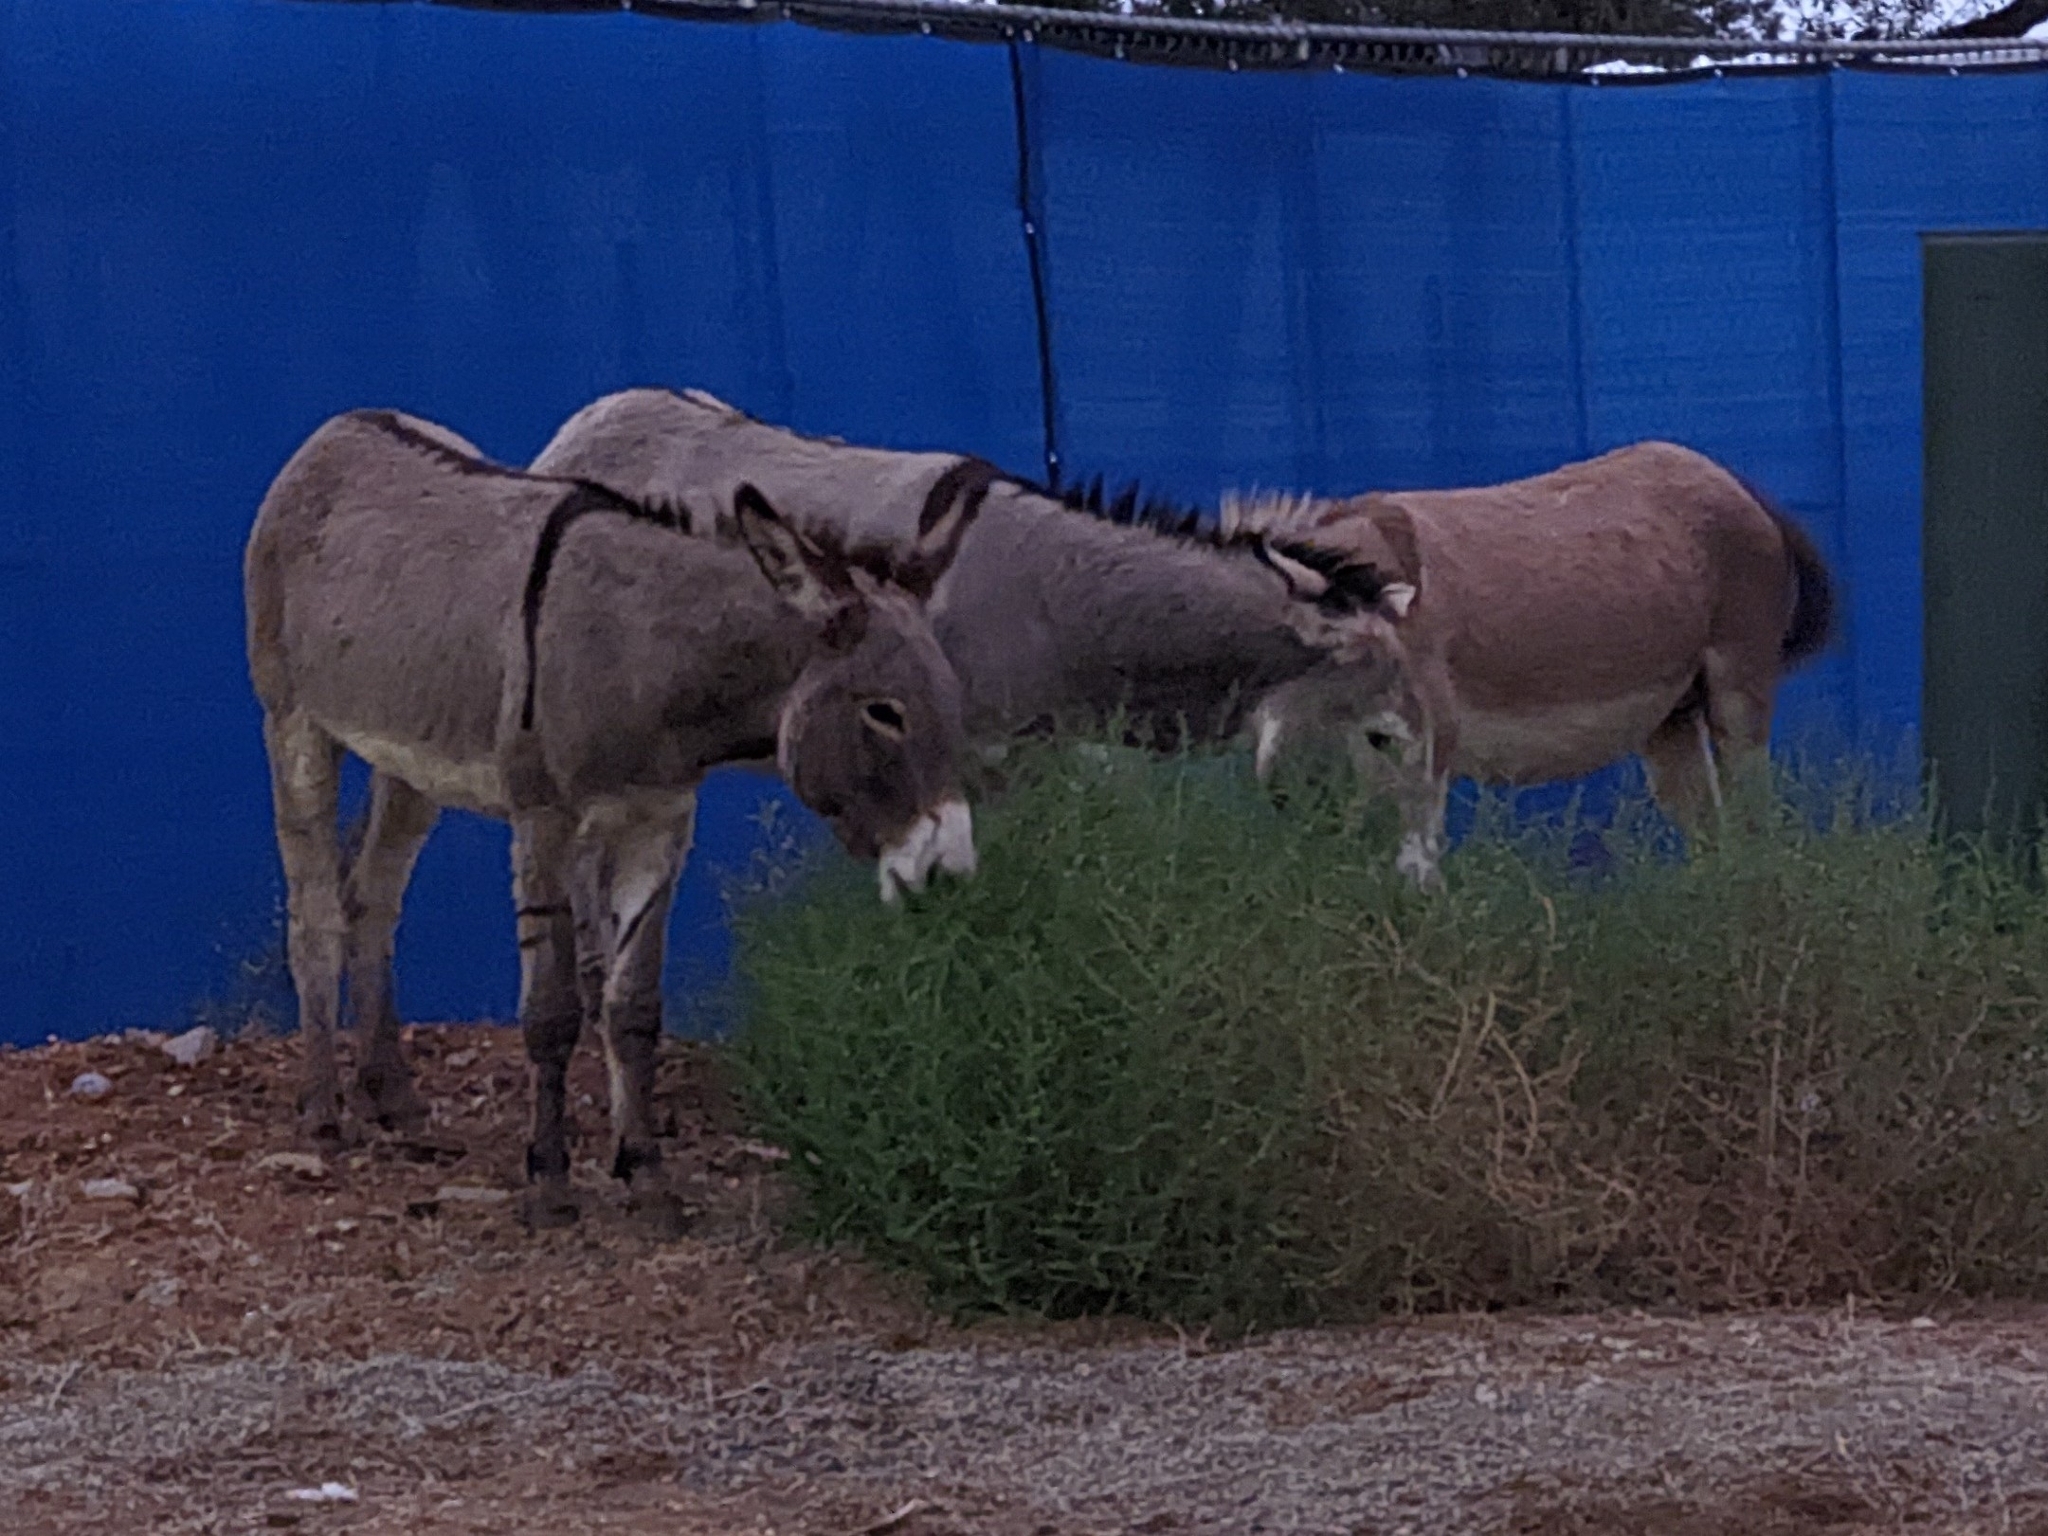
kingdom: Animalia
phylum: Chordata
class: Mammalia
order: Perissodactyla
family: Equidae
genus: Equus
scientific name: Equus asinus
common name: Ass
